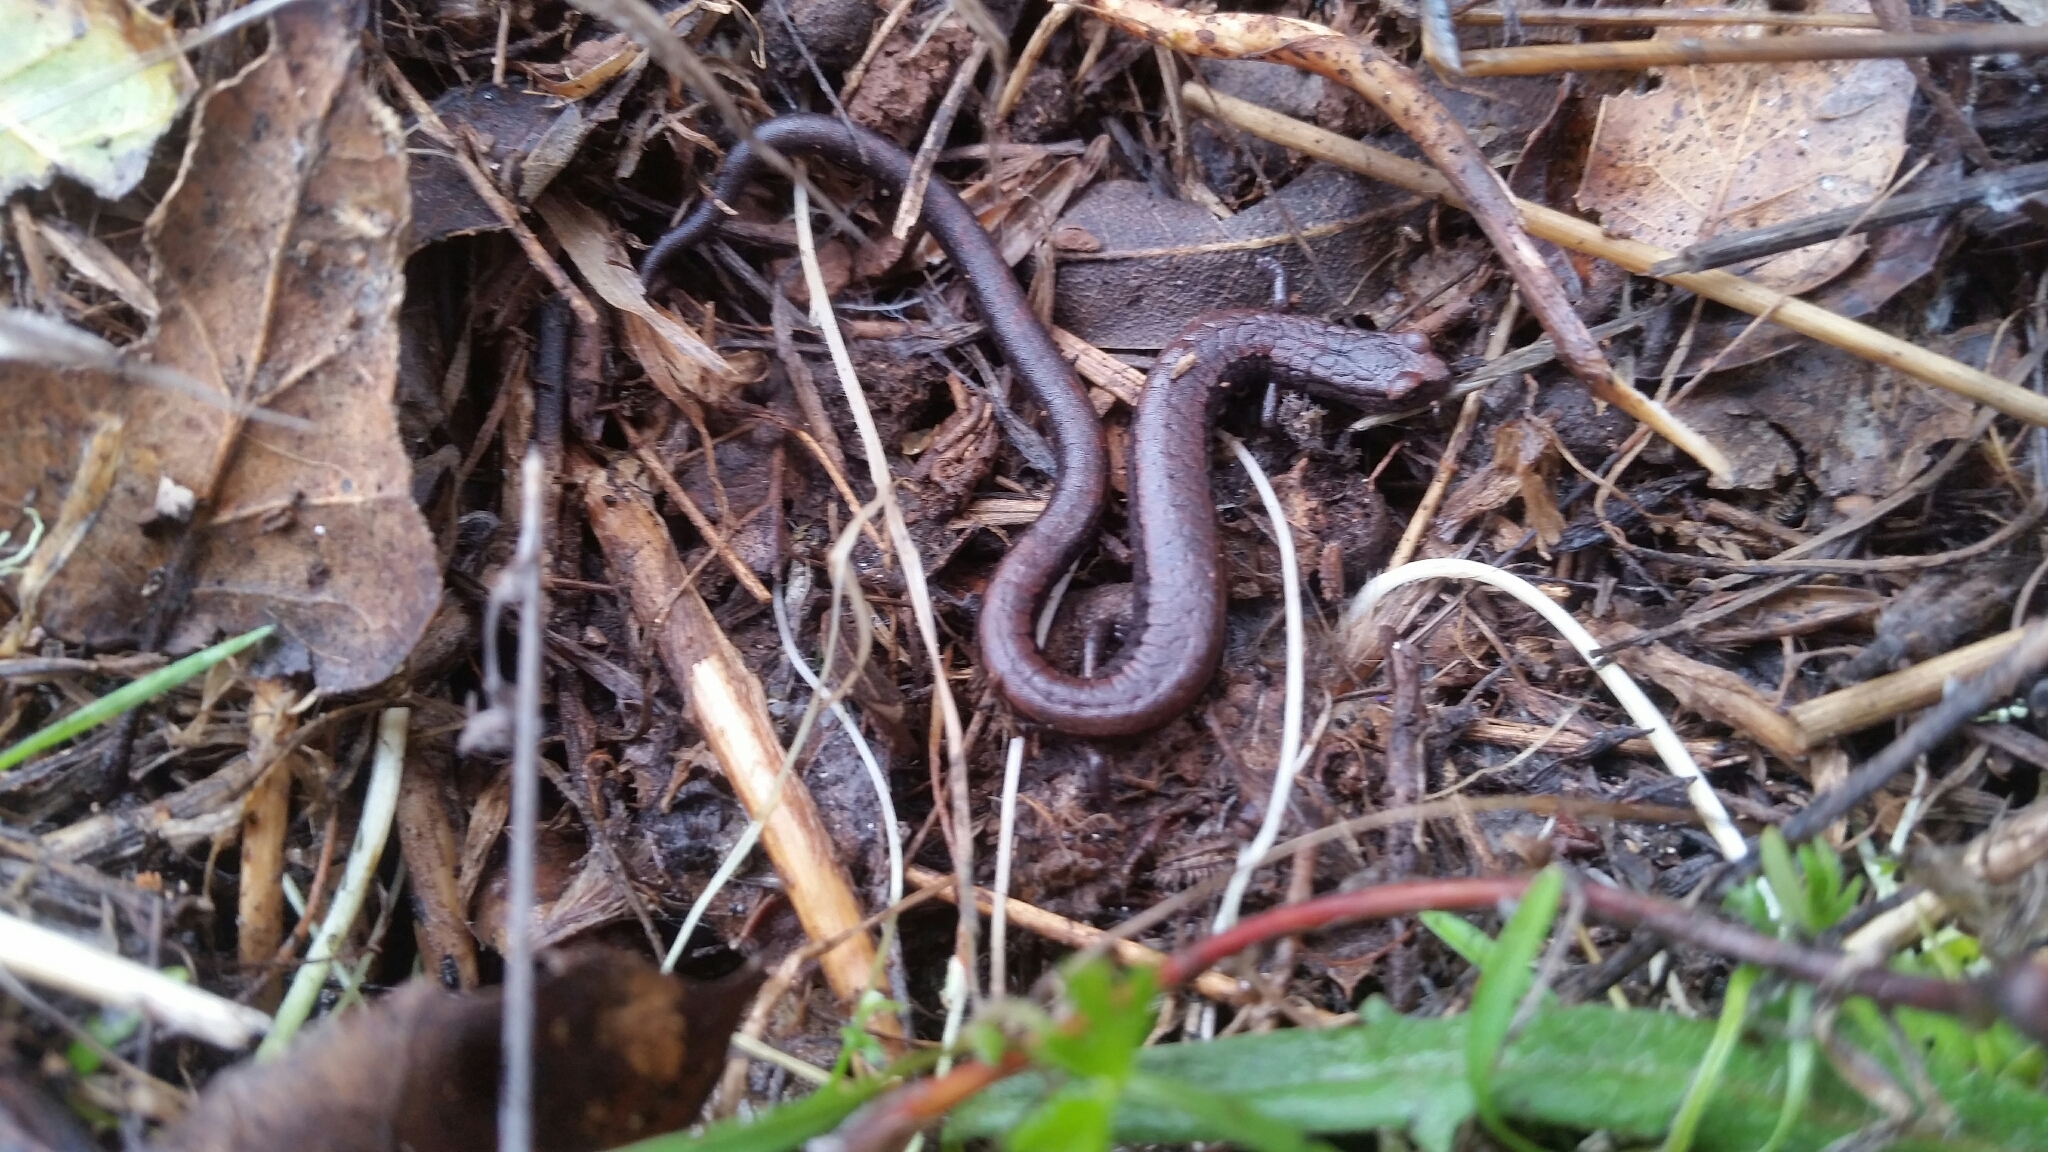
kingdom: Animalia
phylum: Chordata
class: Amphibia
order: Caudata
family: Plethodontidae
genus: Batrachoseps
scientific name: Batrachoseps attenuatus
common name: California slender salamander
